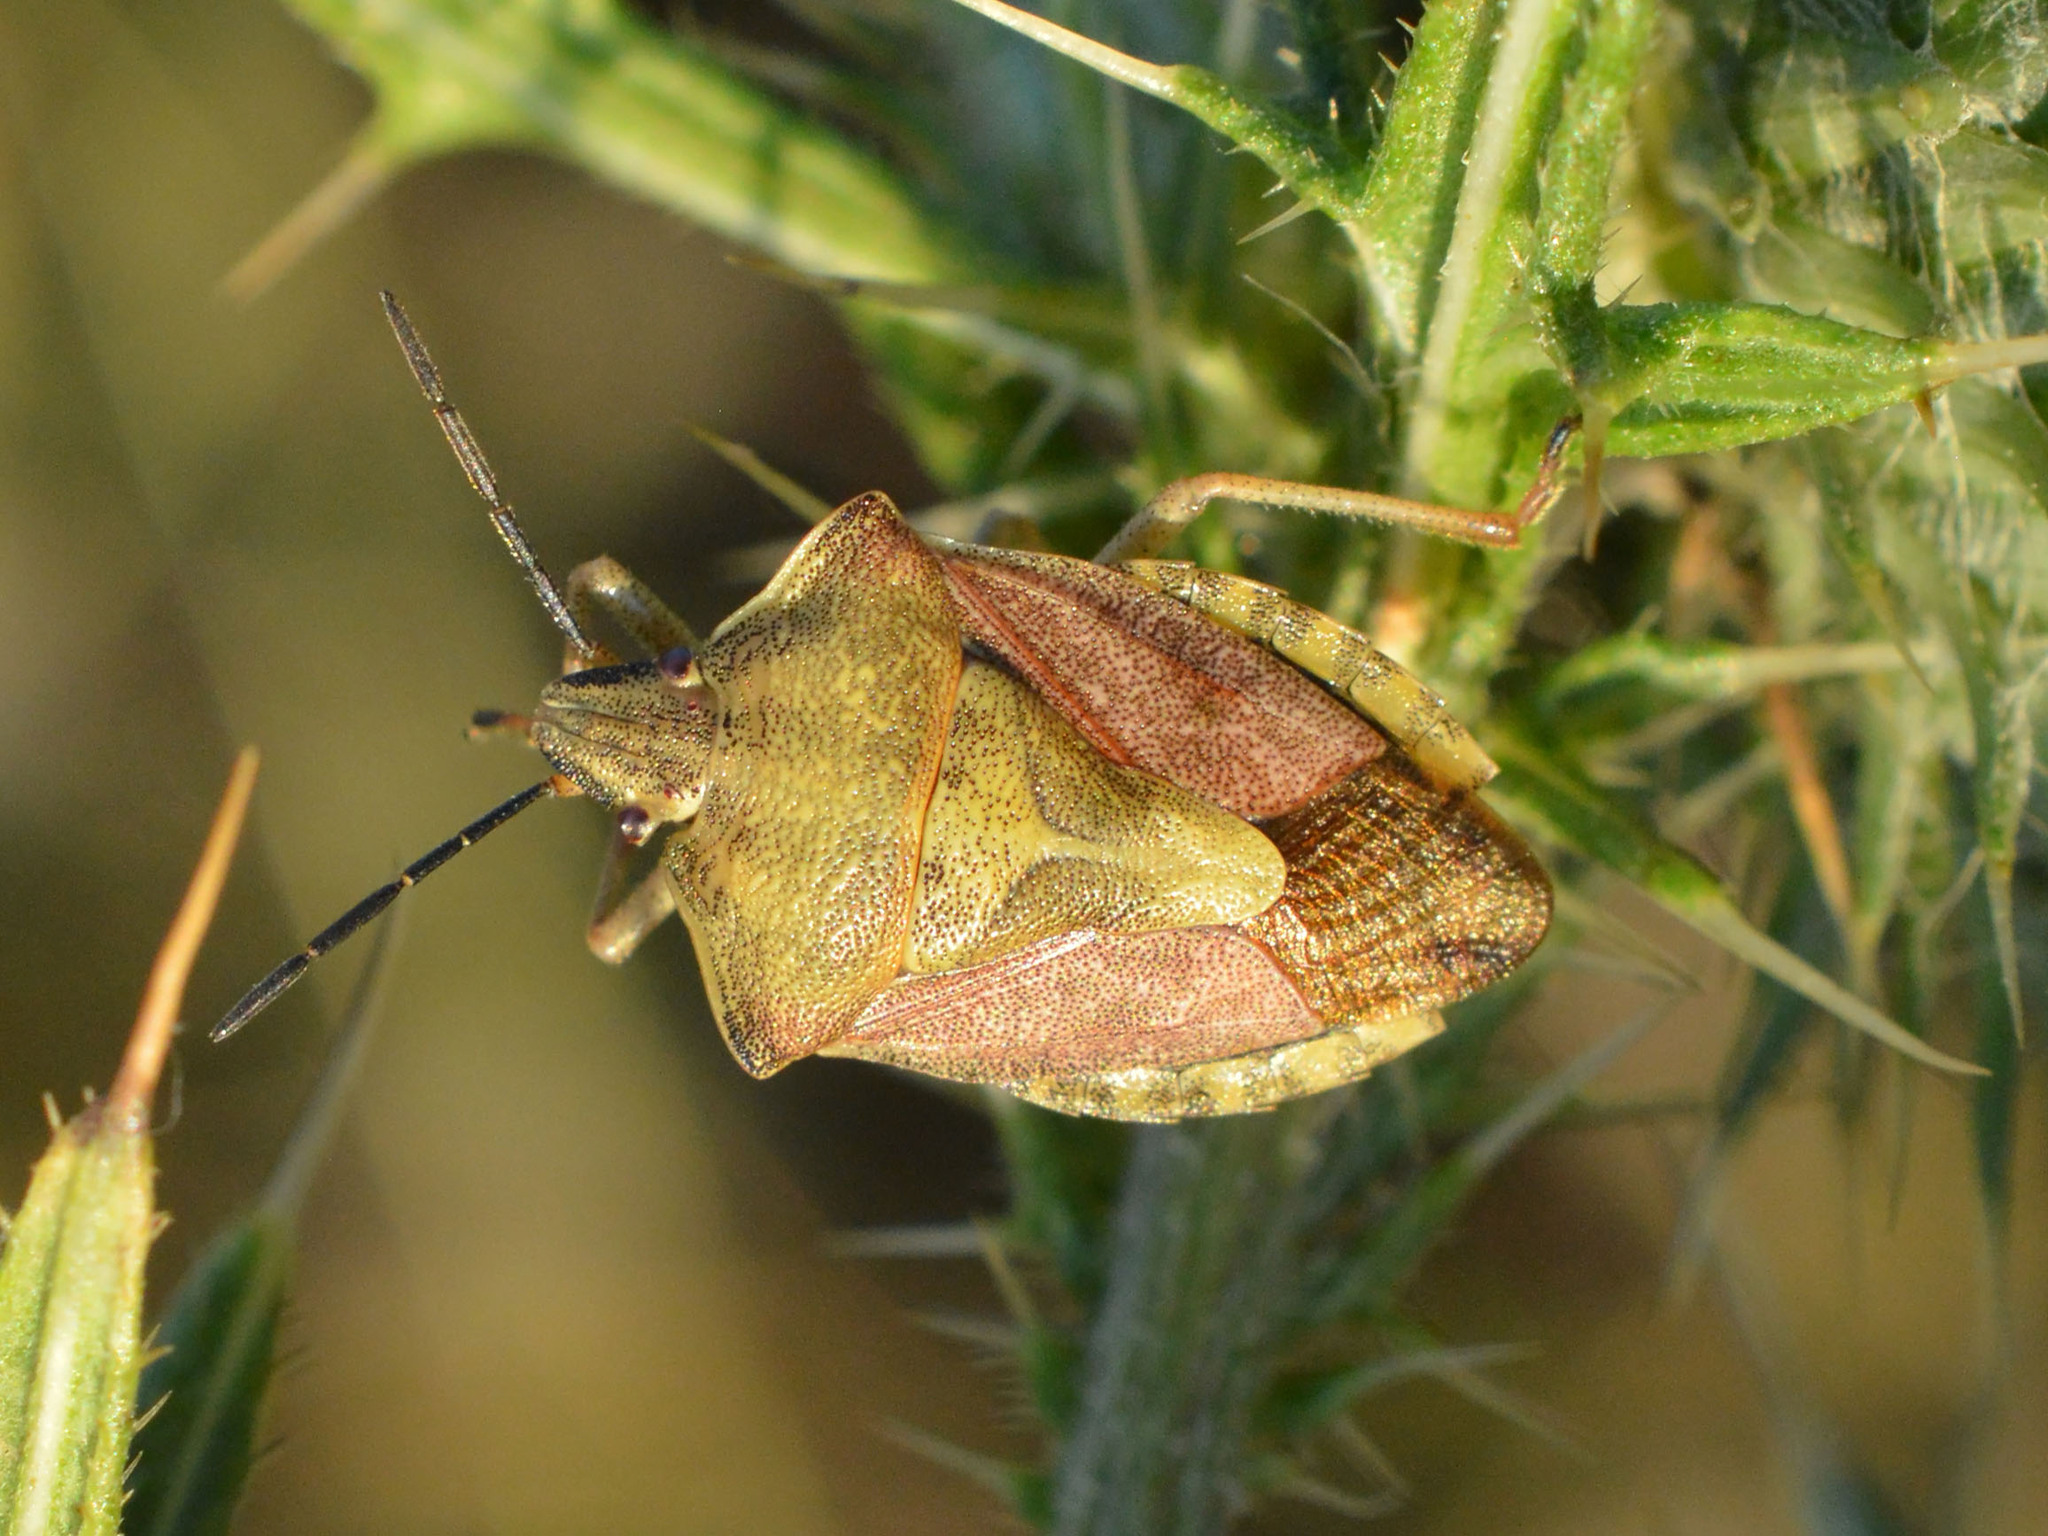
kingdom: Animalia
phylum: Arthropoda
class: Insecta
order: Hemiptera
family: Pentatomidae
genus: Carpocoris
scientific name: Carpocoris purpureipennis
